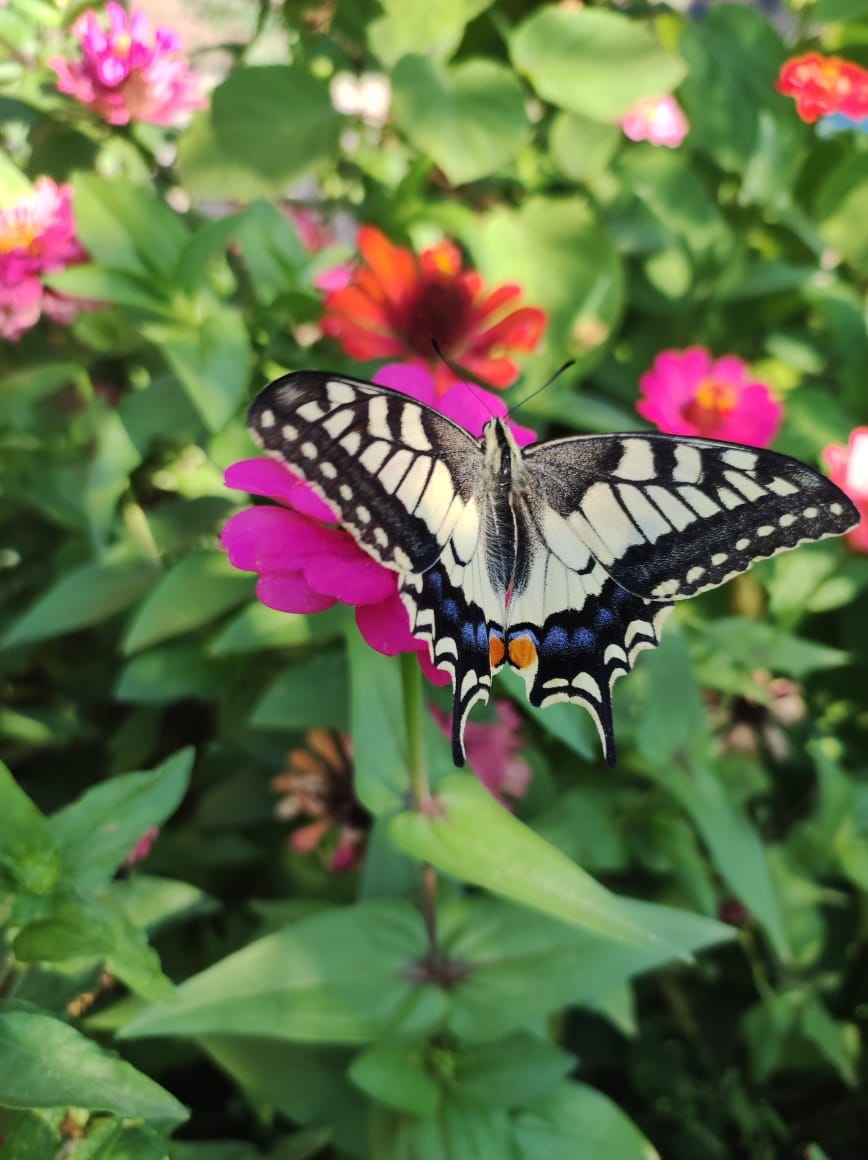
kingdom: Animalia
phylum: Arthropoda
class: Insecta
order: Lepidoptera
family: Papilionidae
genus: Papilio
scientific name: Papilio machaon
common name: Swallowtail
